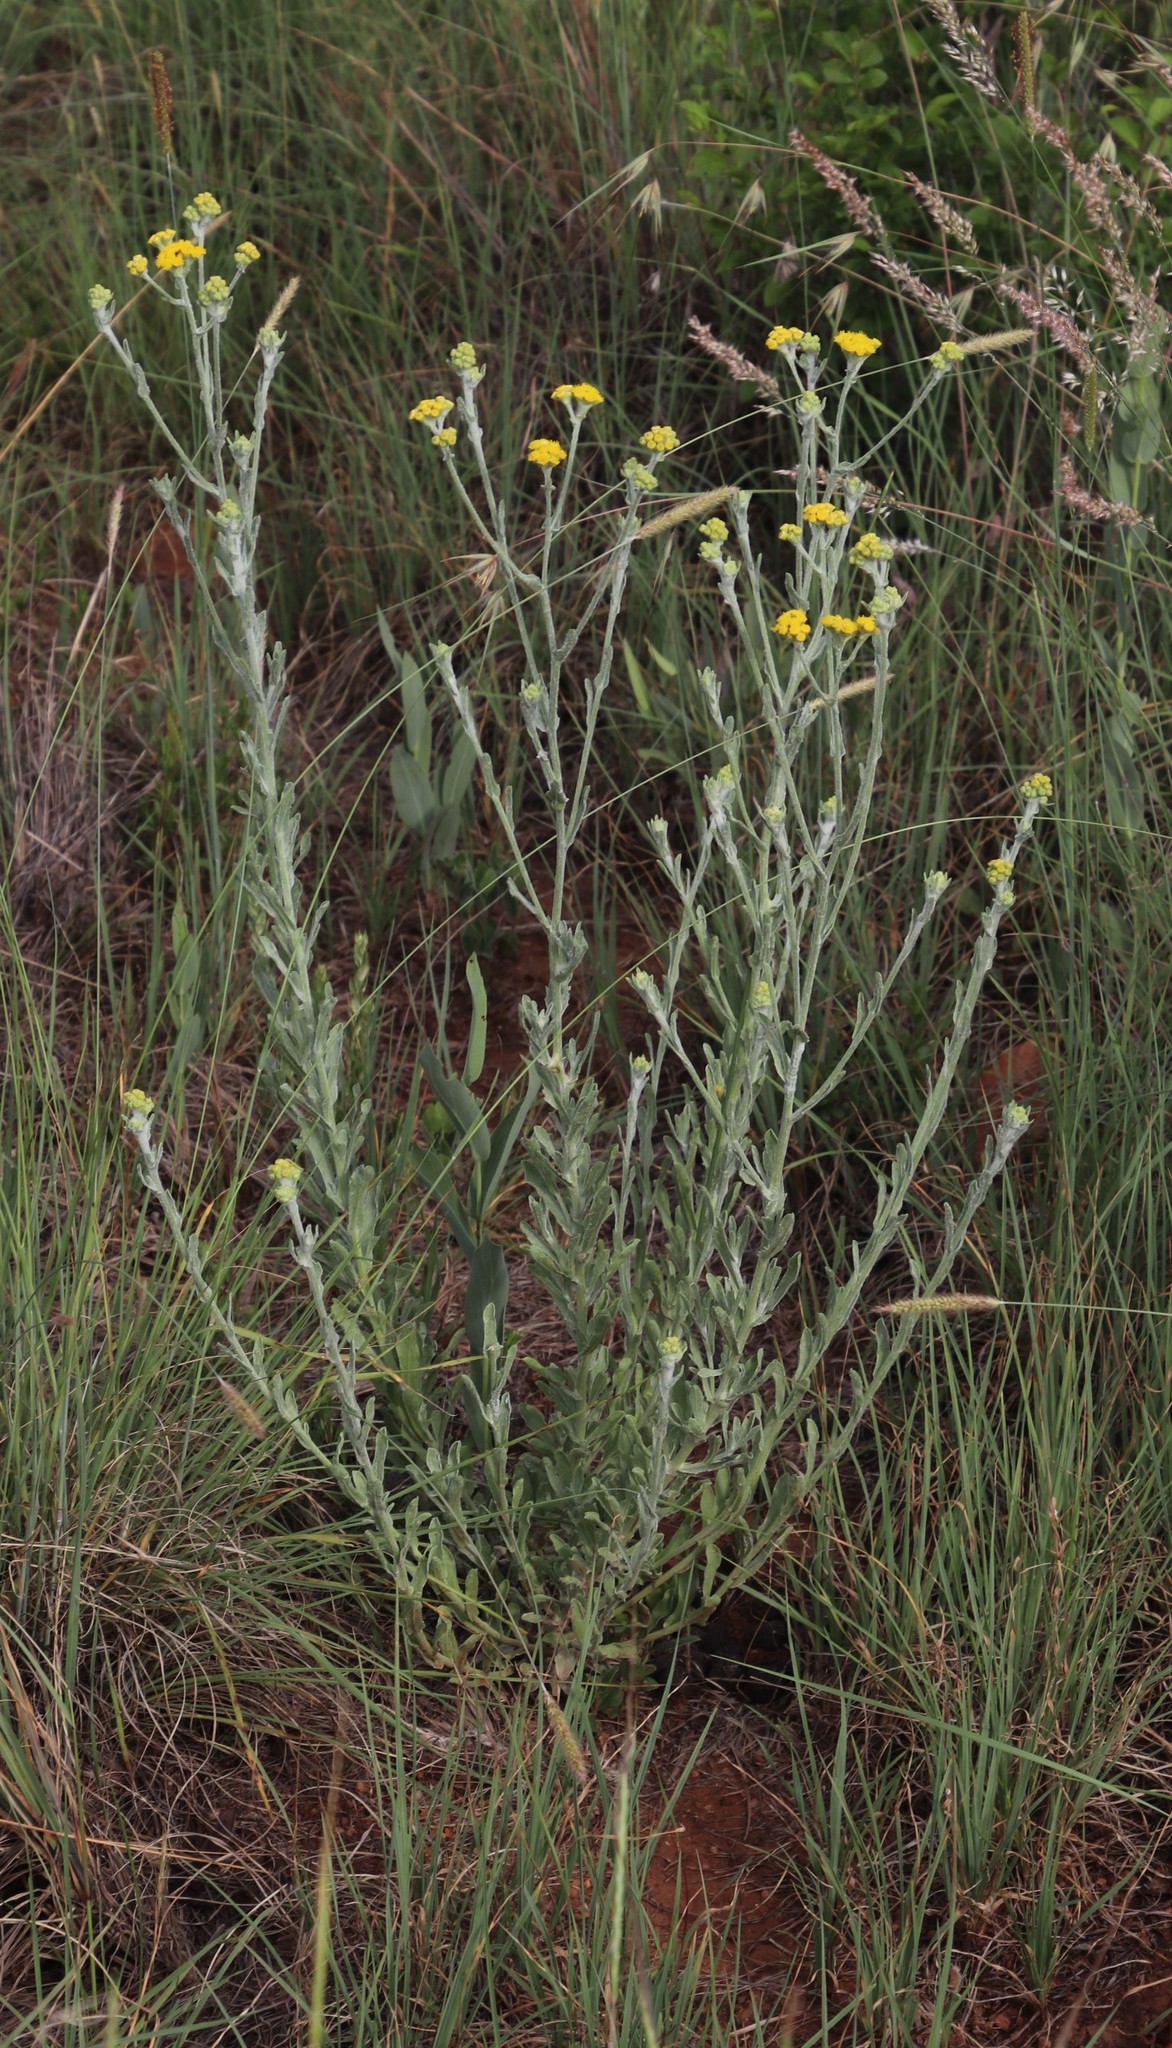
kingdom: Plantae
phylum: Tracheophyta
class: Magnoliopsida
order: Asterales
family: Asteraceae
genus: Nidorella
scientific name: Nidorella hottentotica
